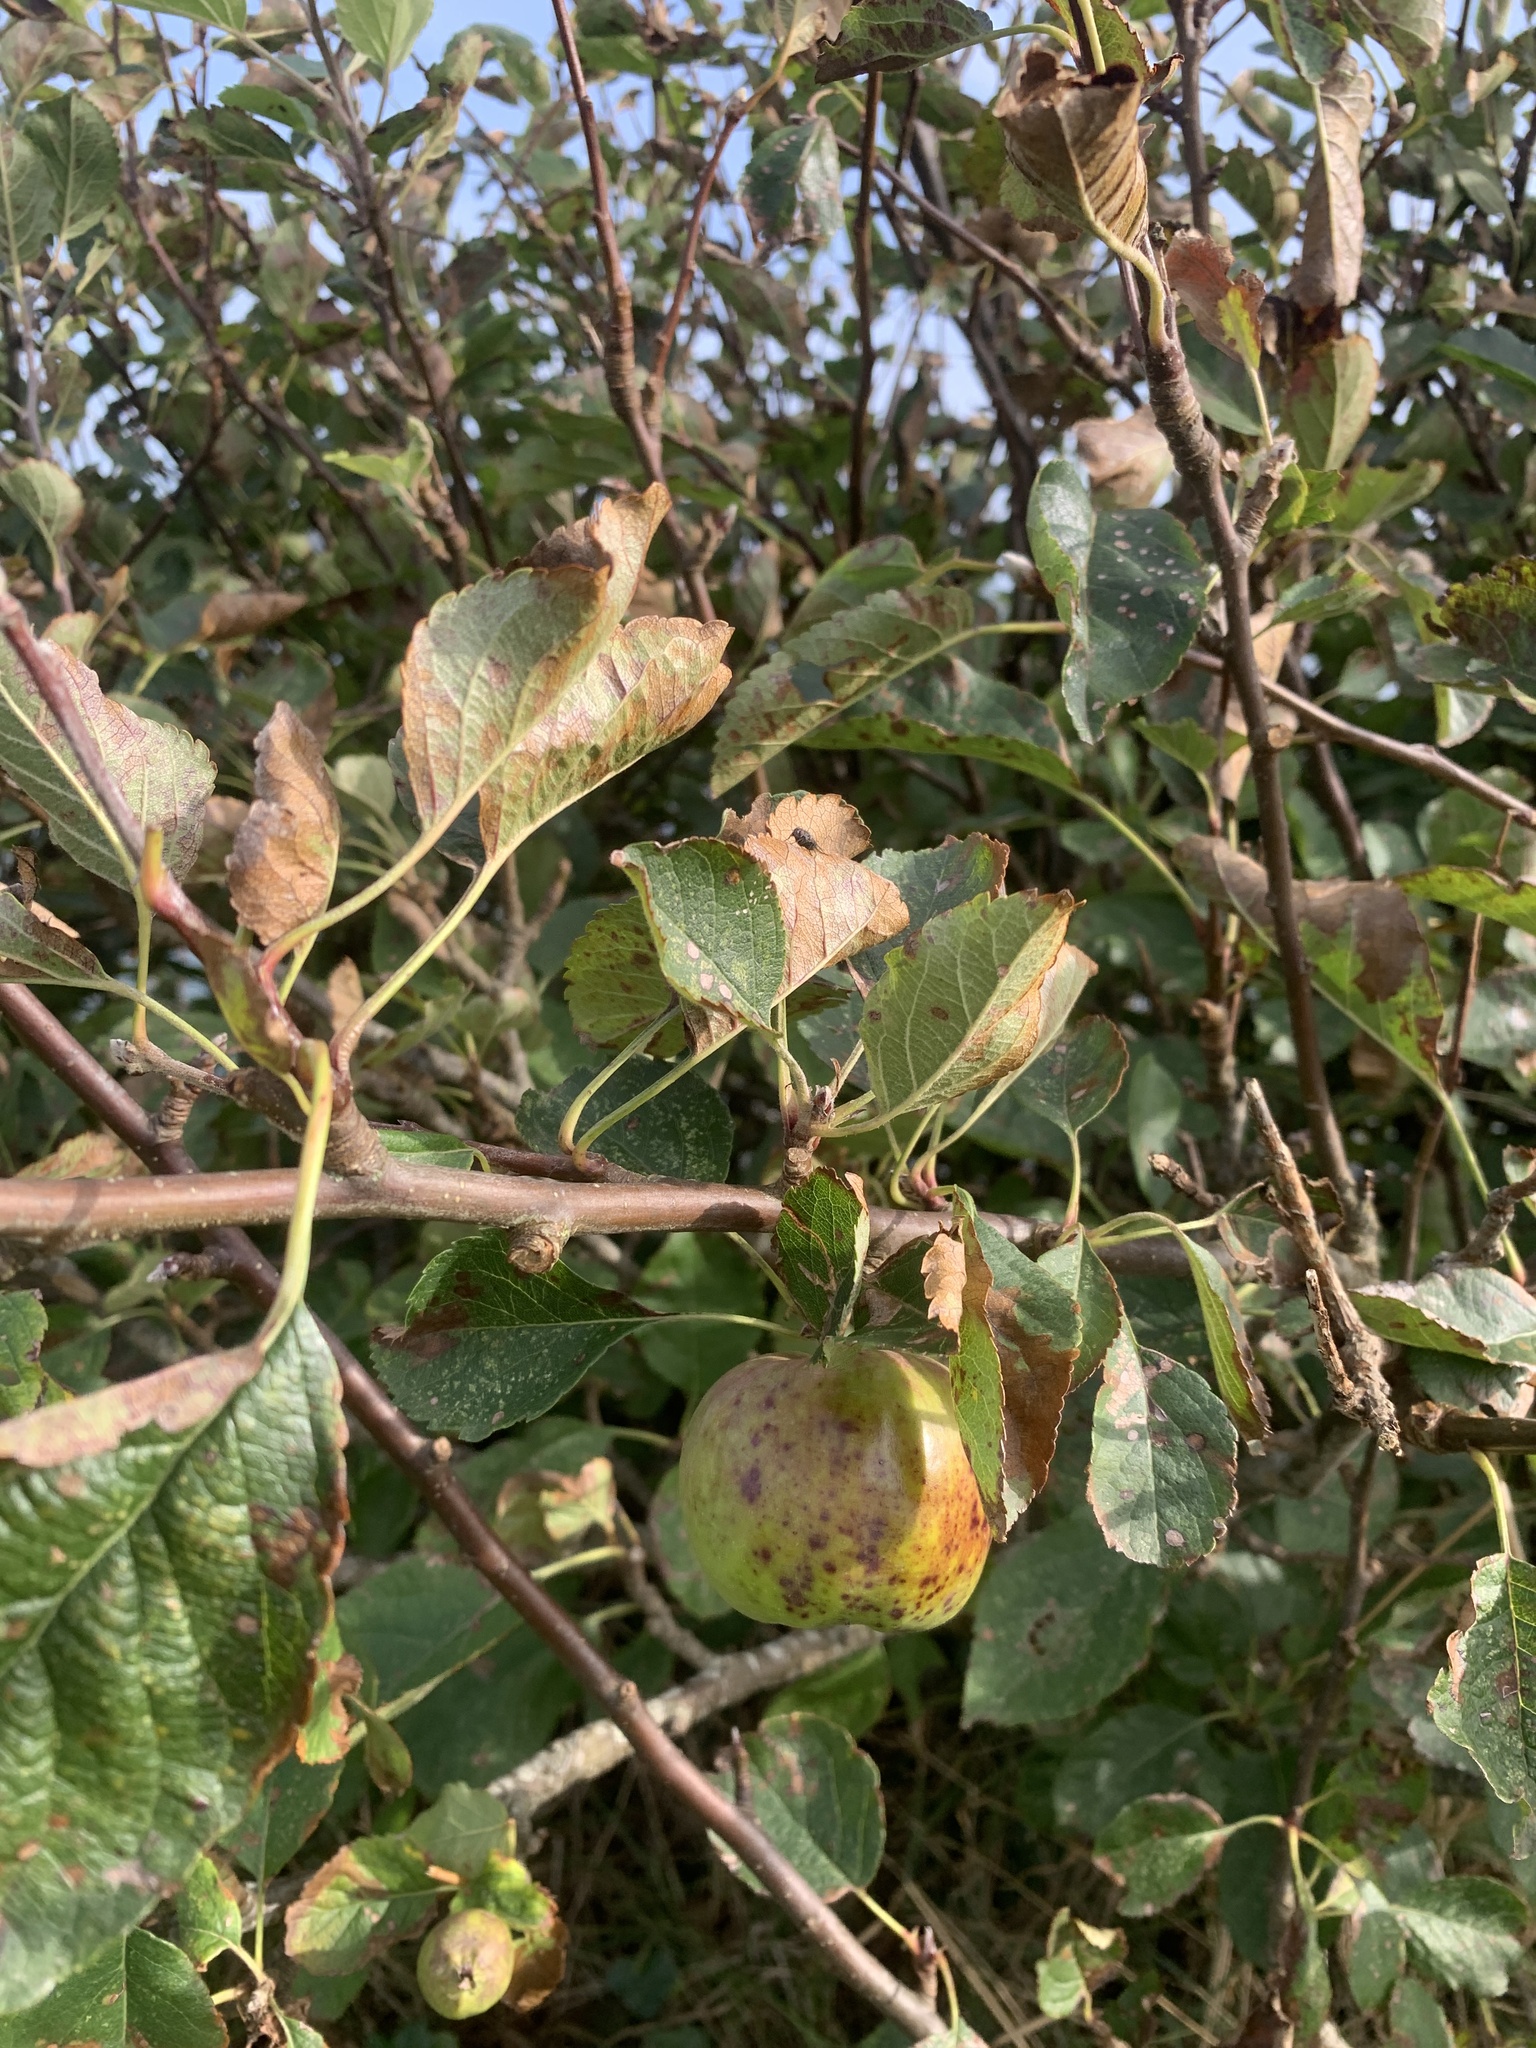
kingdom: Plantae
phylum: Tracheophyta
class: Magnoliopsida
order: Rosales
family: Rosaceae
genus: Malus
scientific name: Malus domestica
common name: Apple
